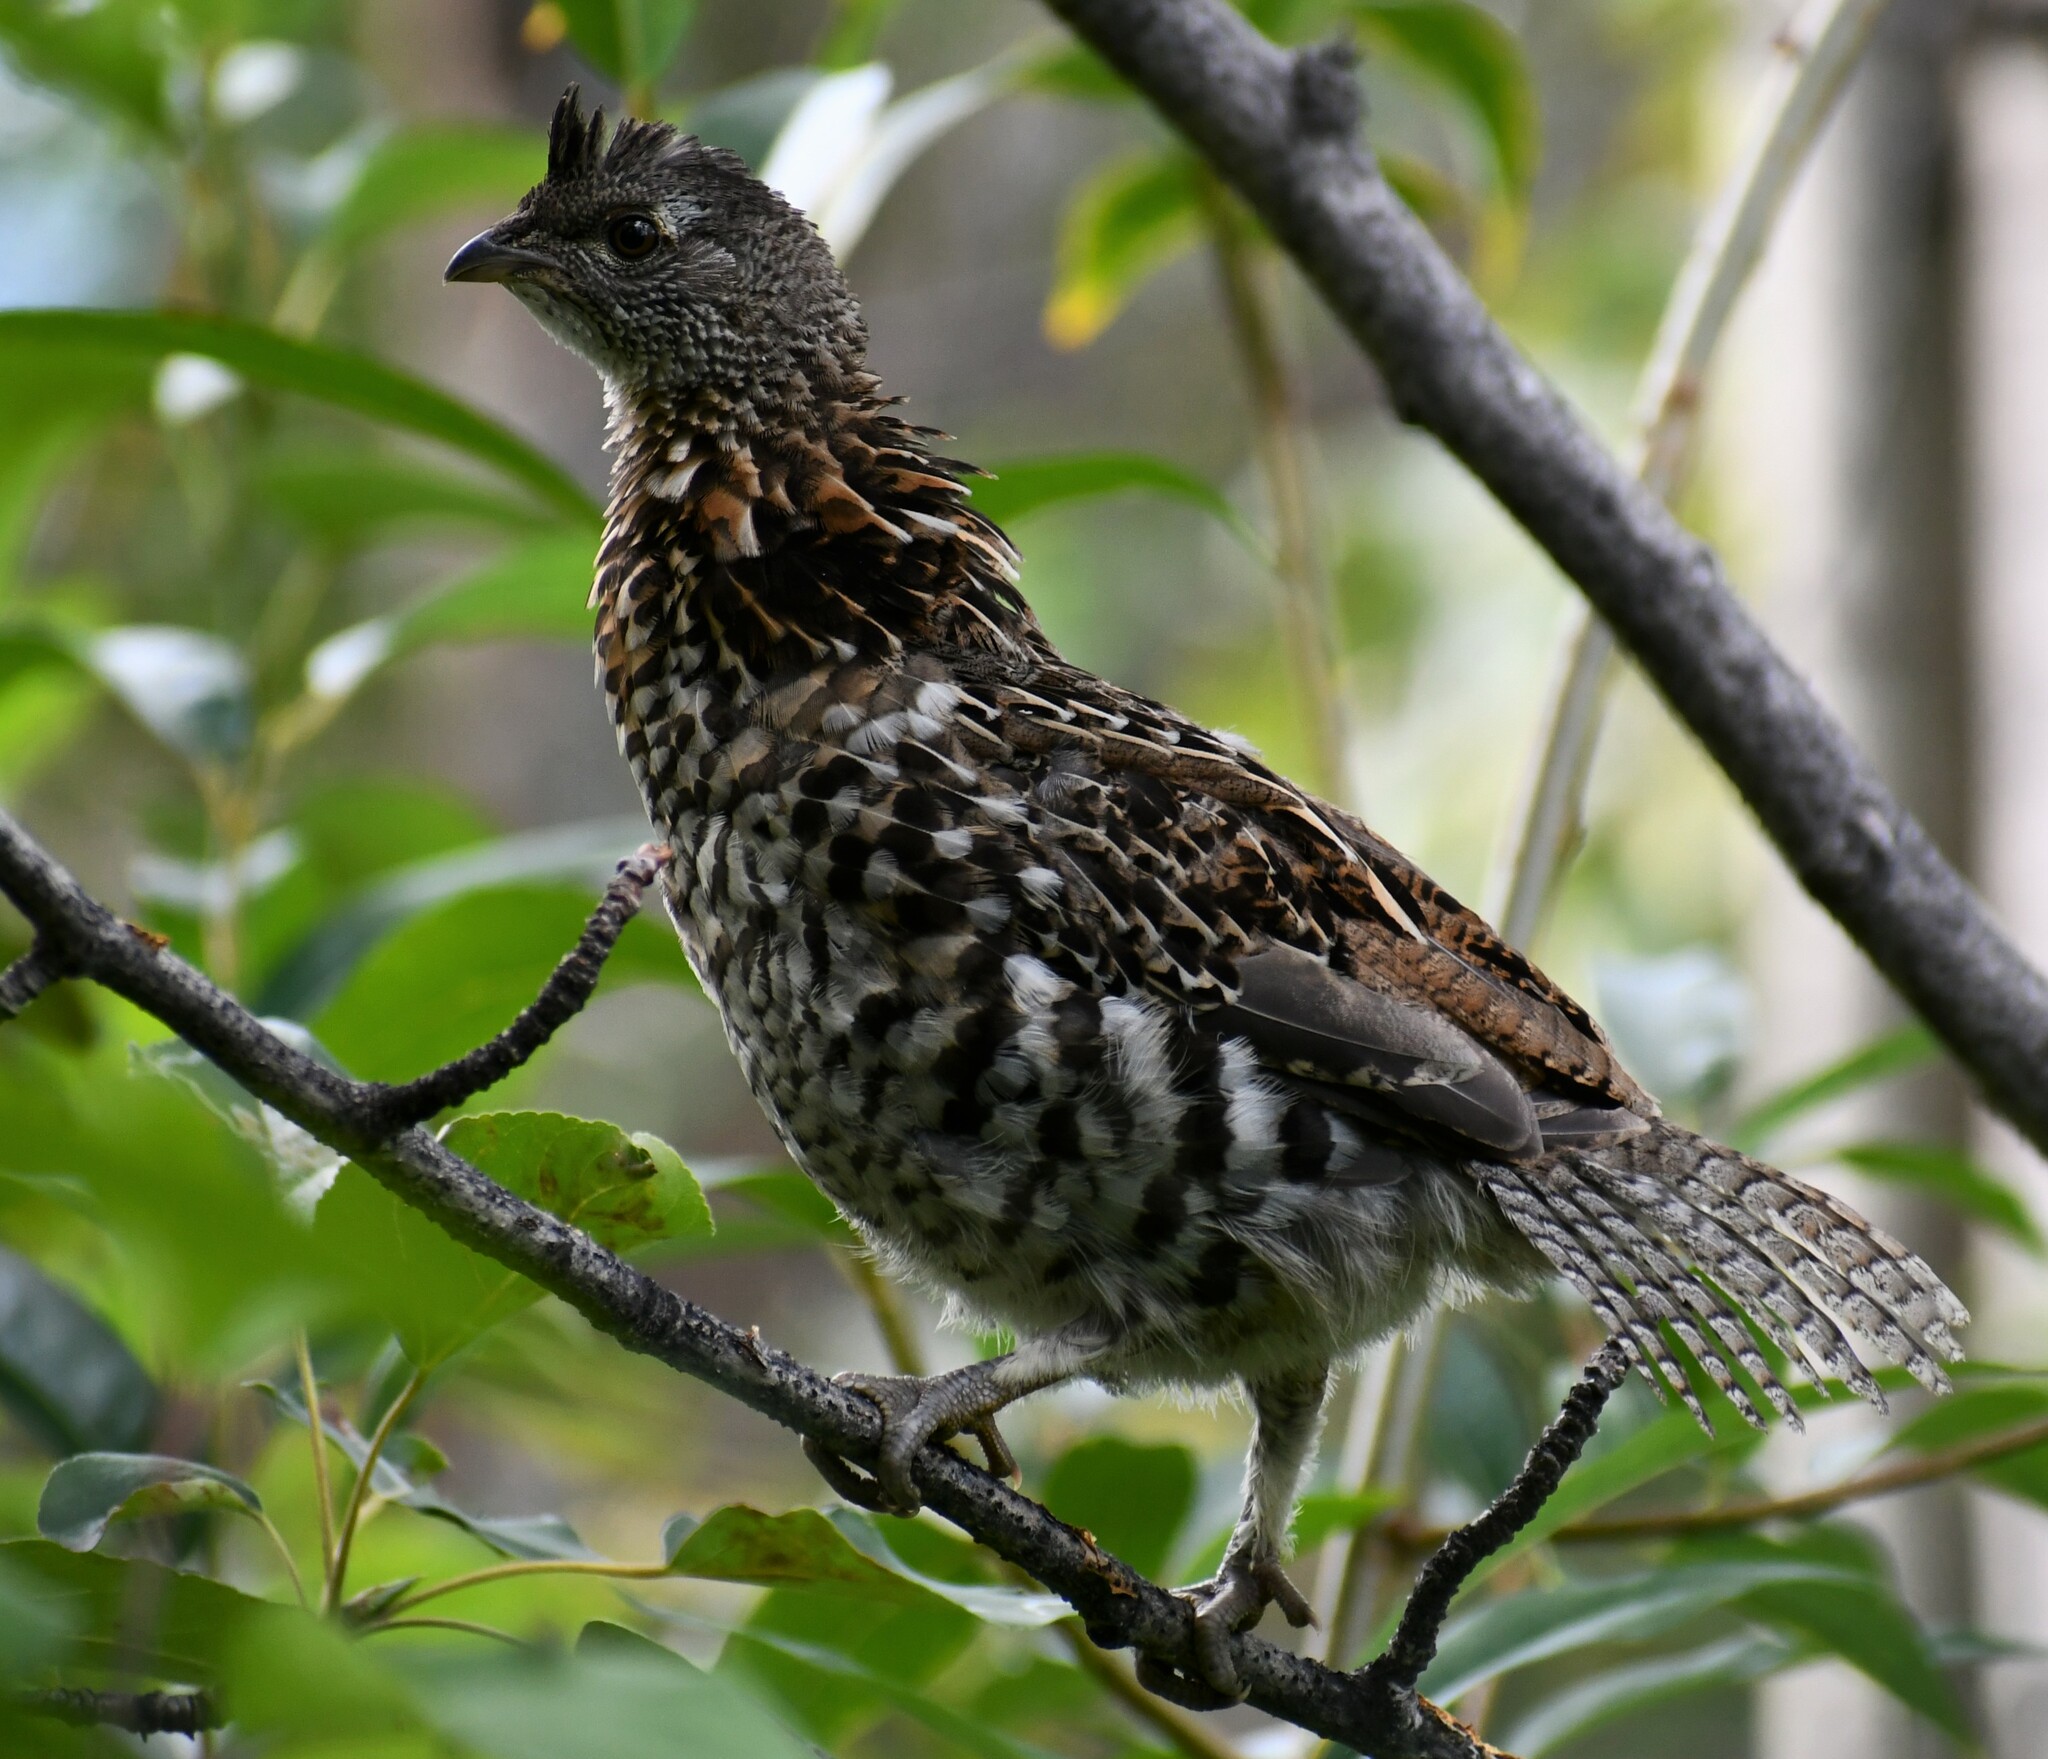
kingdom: Animalia
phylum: Chordata
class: Aves
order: Galliformes
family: Phasianidae
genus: Bonasa
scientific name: Bonasa umbellus
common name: Ruffed grouse
